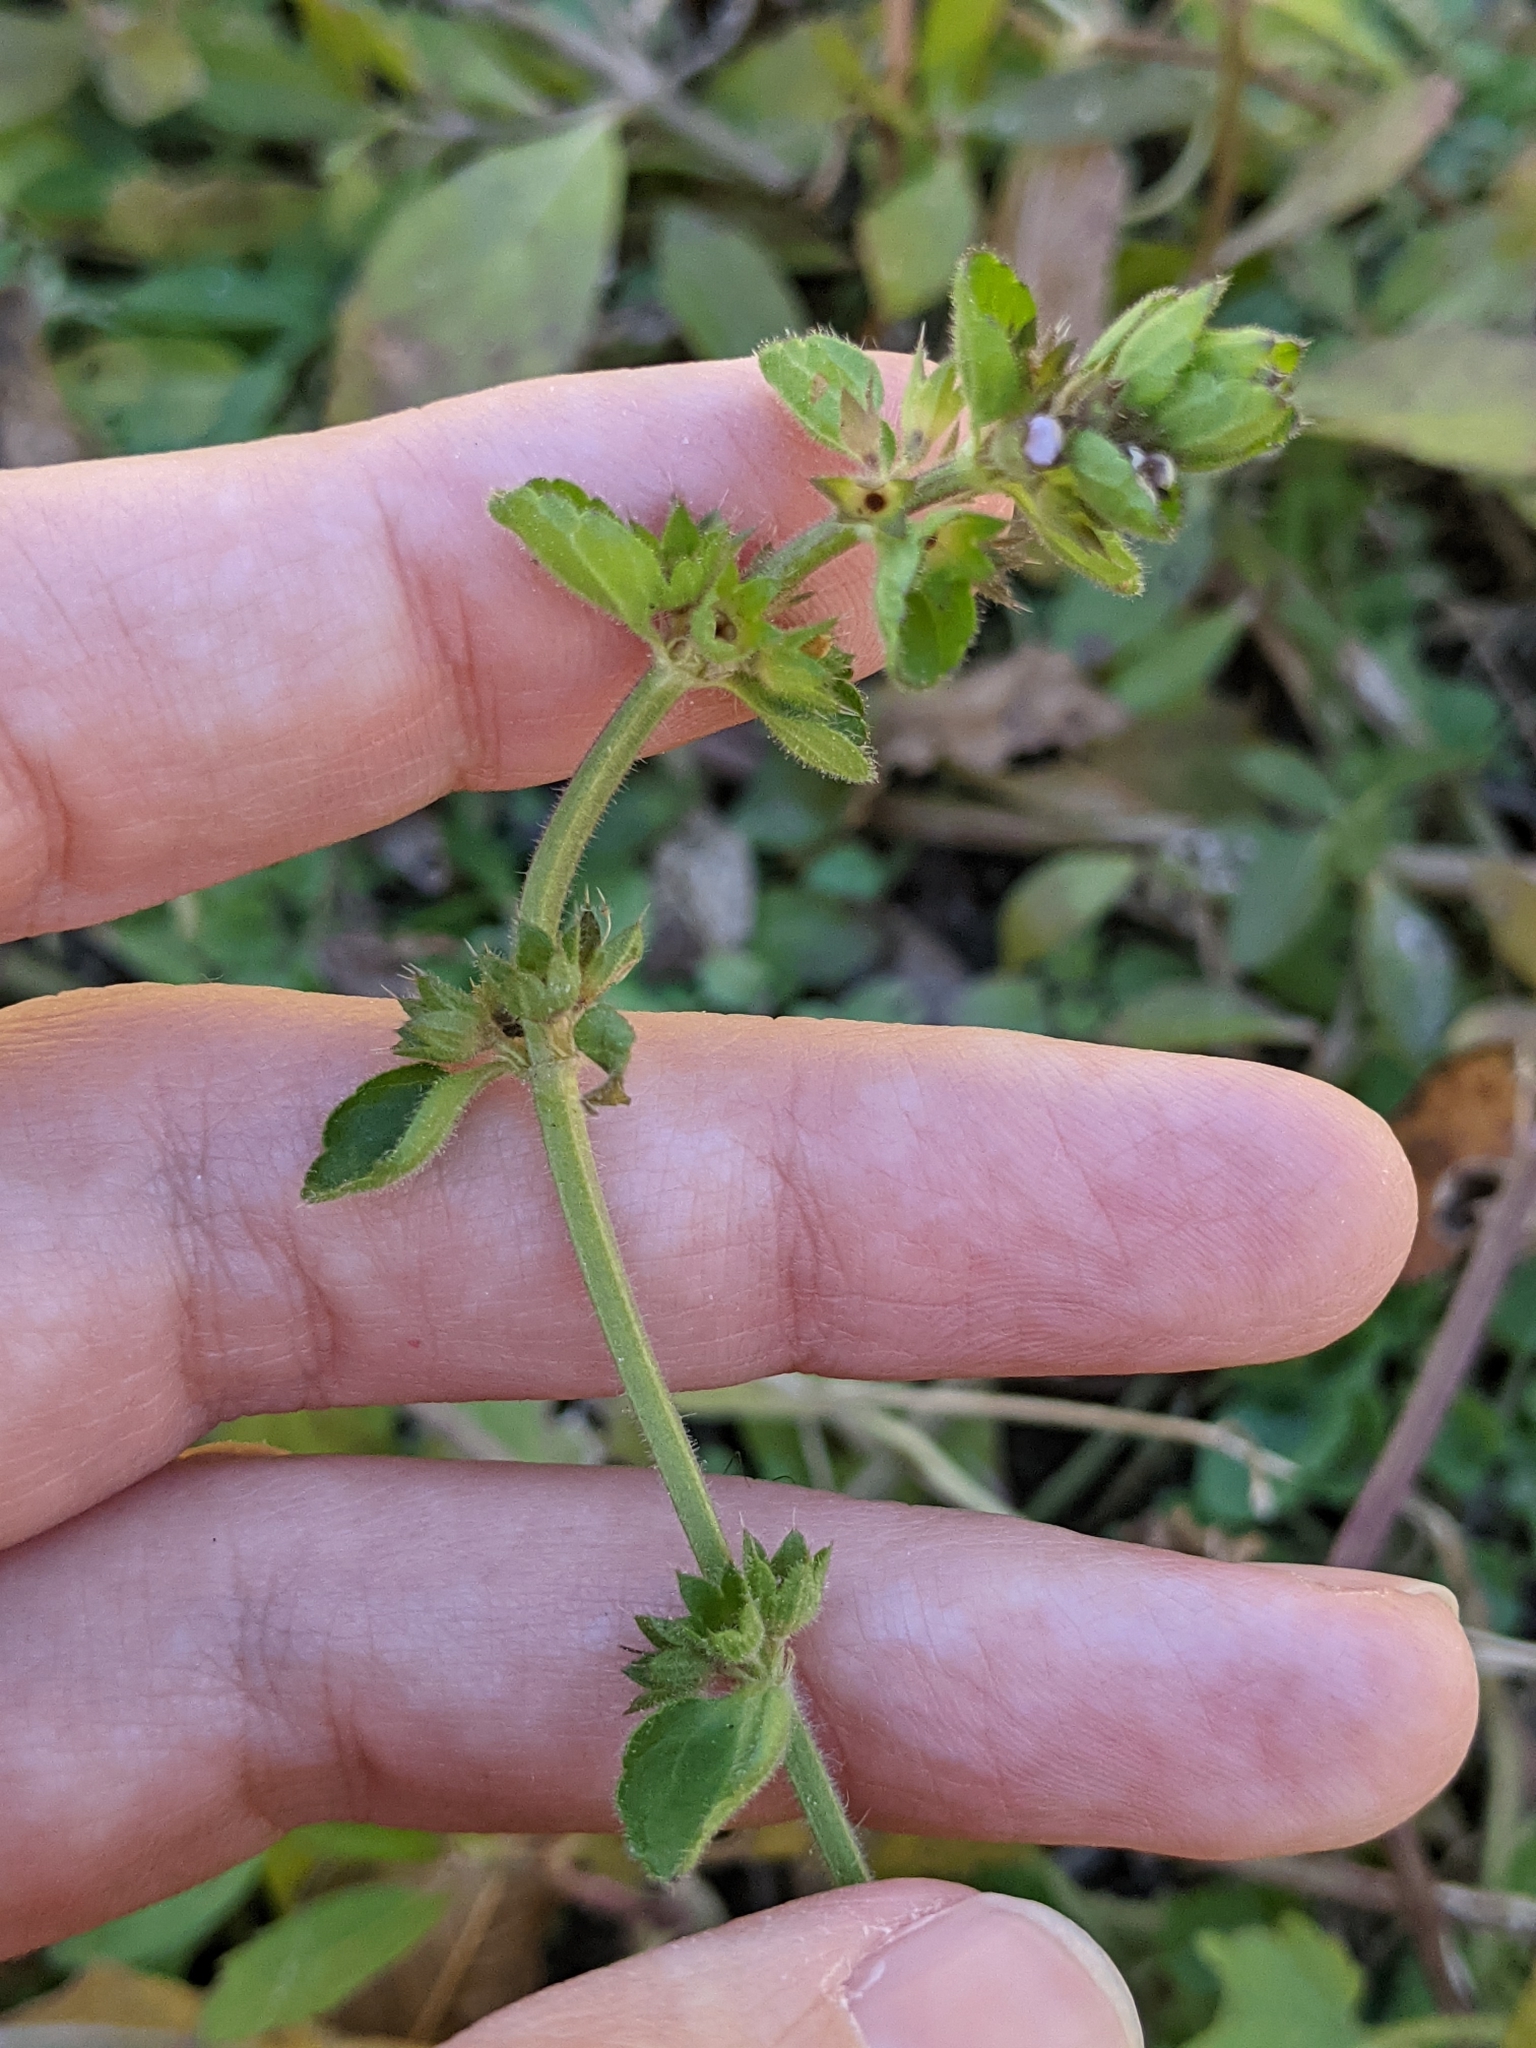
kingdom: Plantae
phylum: Tracheophyta
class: Magnoliopsida
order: Lamiales
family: Lamiaceae
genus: Stachys
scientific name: Stachys
